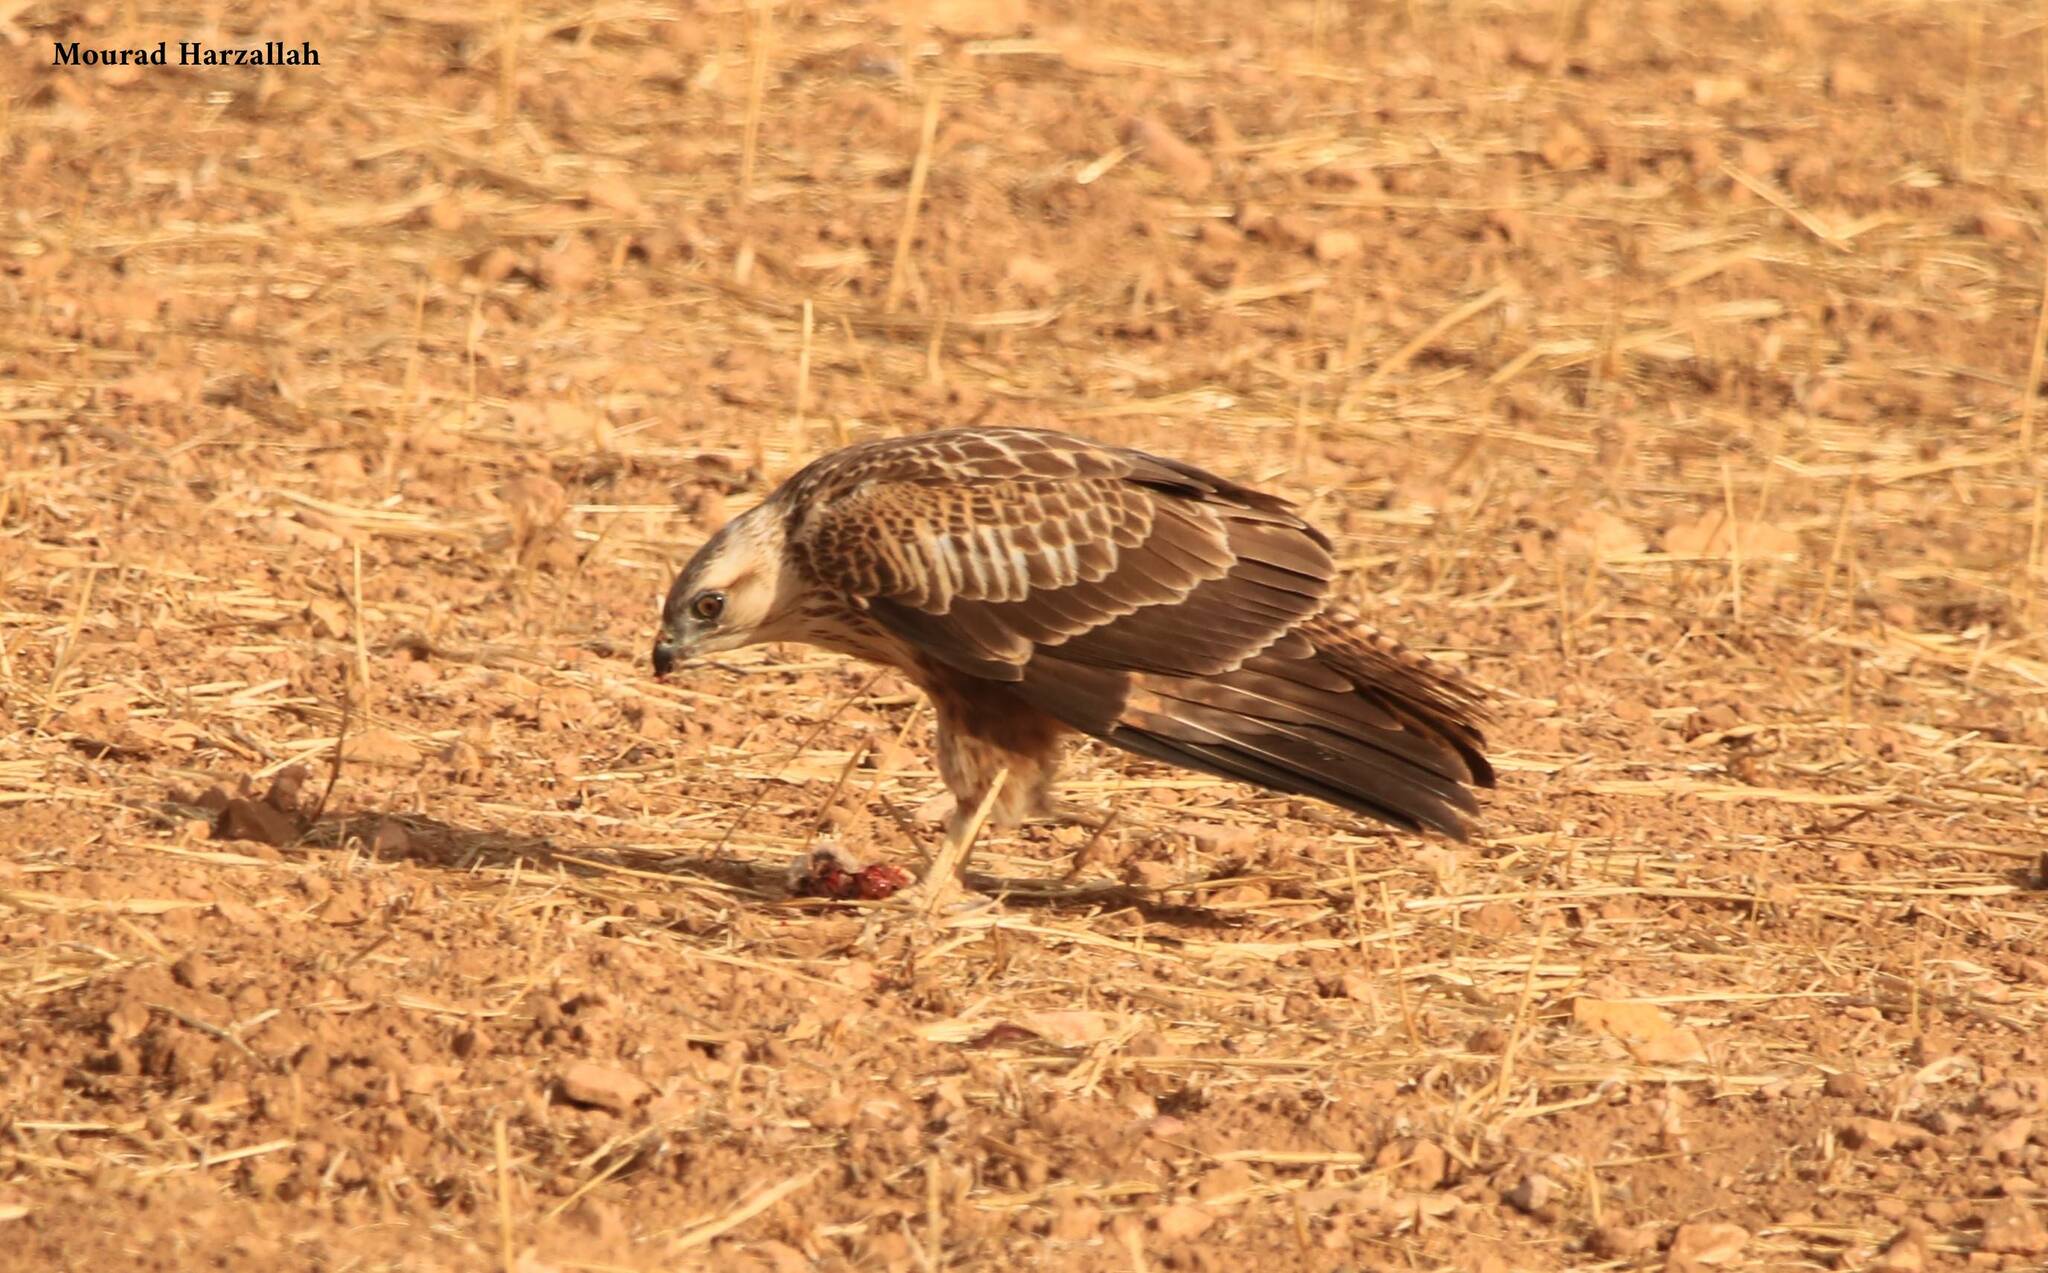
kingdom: Animalia
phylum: Chordata
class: Aves
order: Accipitriformes
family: Accipitridae
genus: Buteo
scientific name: Buteo rufinus
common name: Long-legged buzzard
